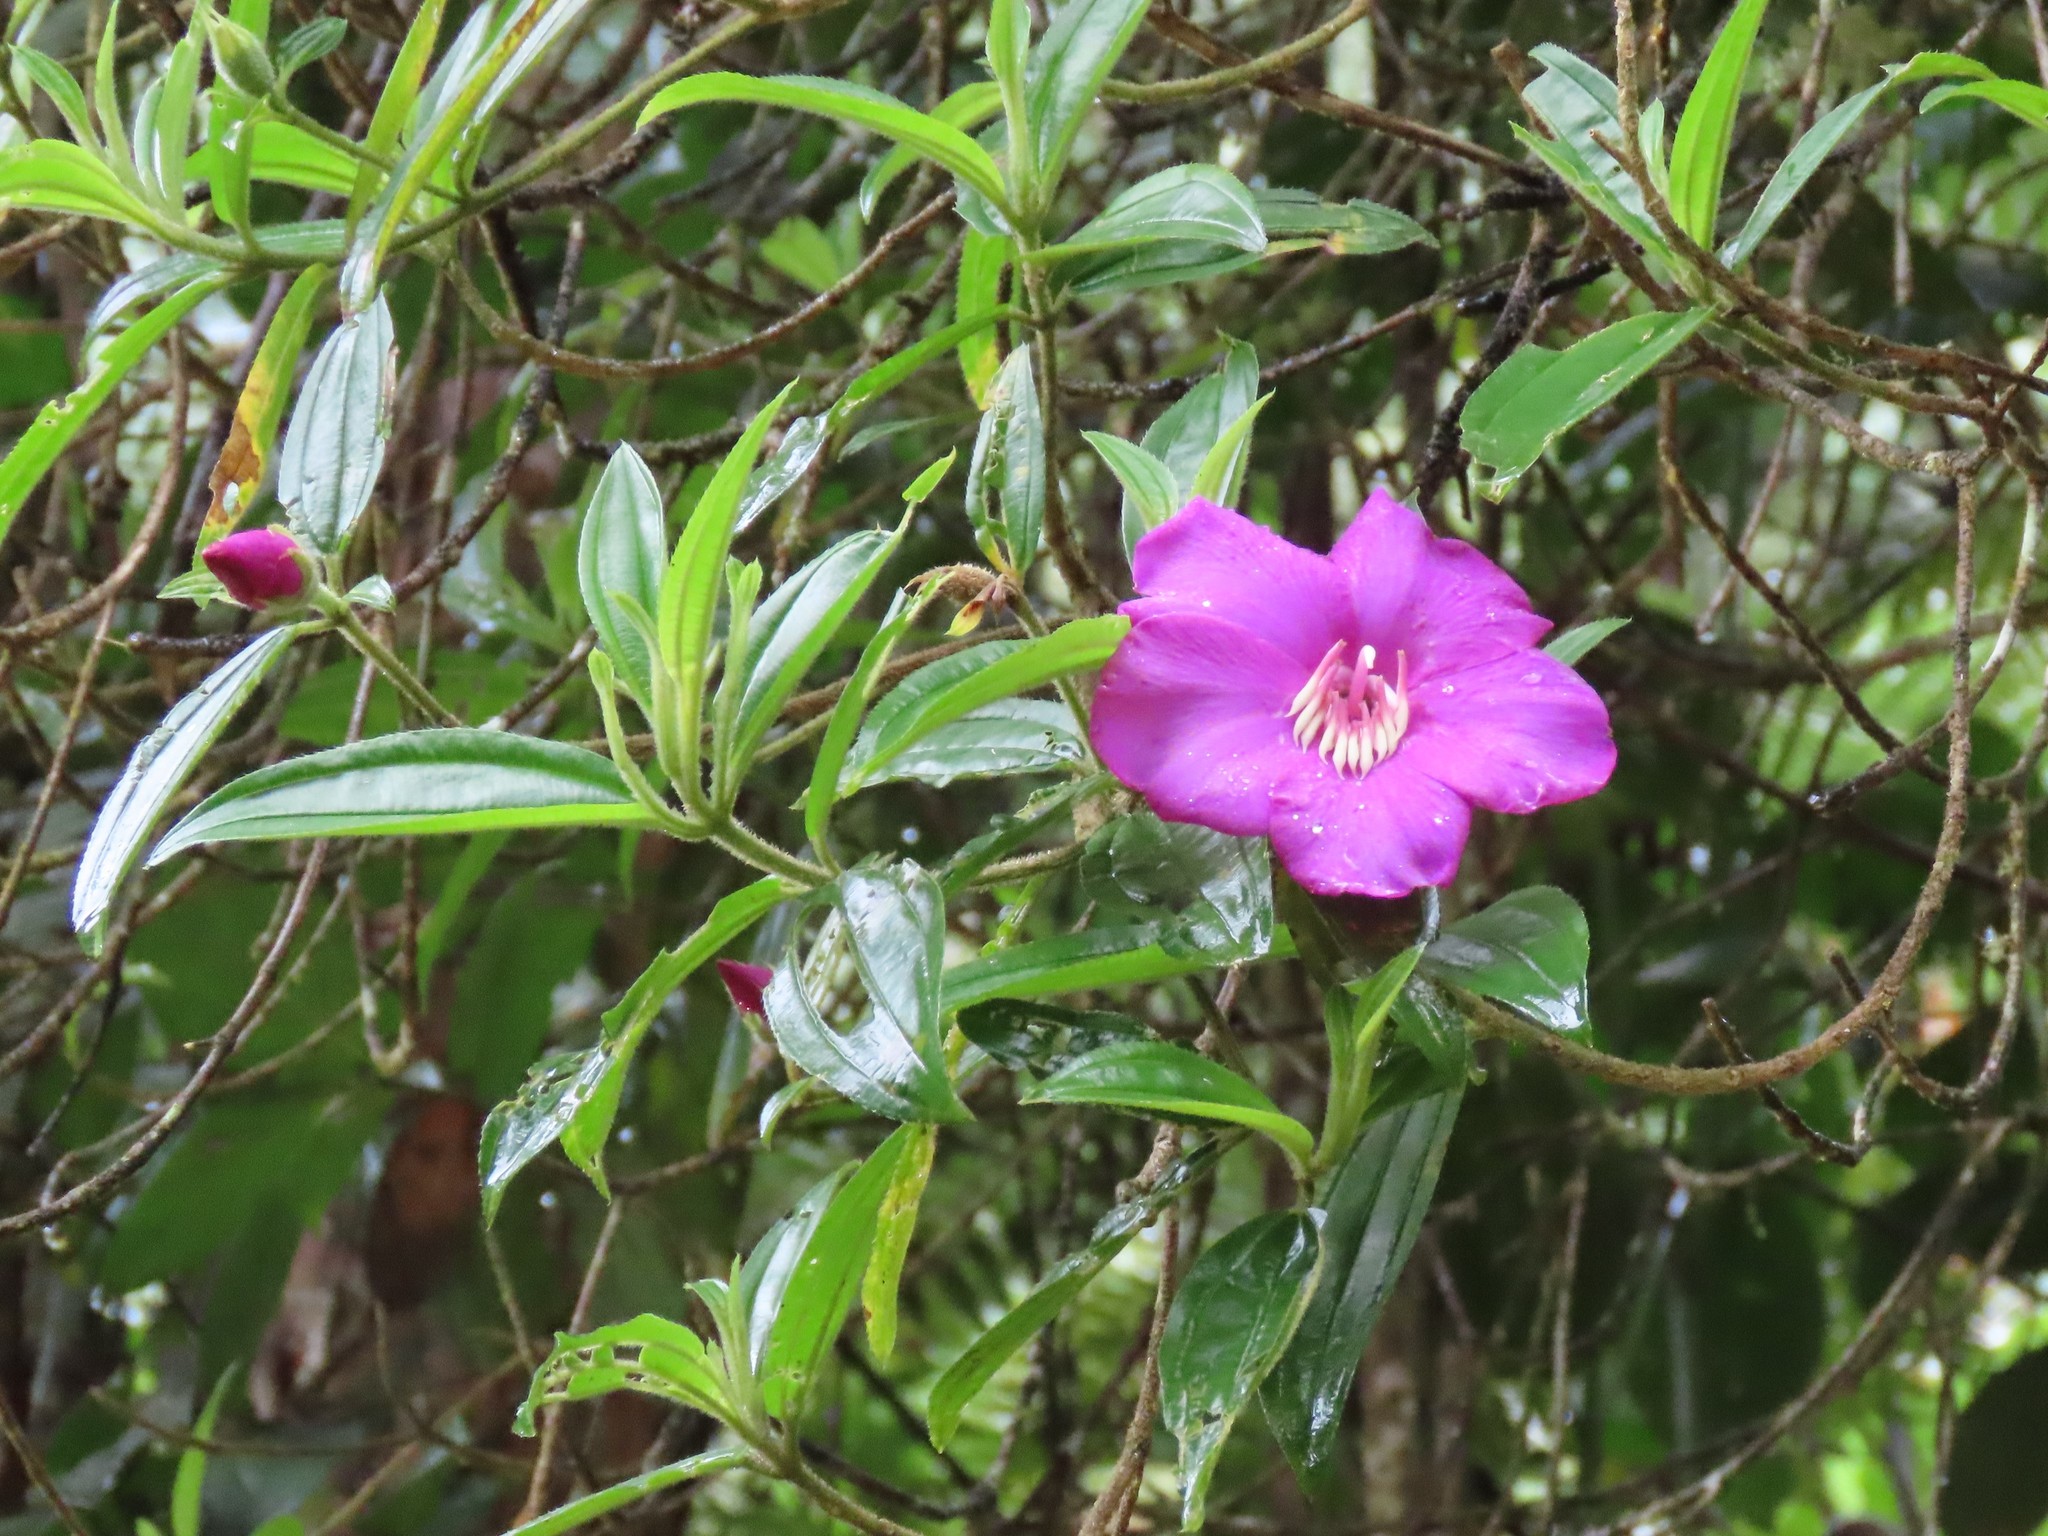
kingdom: Plantae
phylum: Tracheophyta
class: Magnoliopsida
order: Myrtales
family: Melastomataceae
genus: Meriania
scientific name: Meriania speciosa
